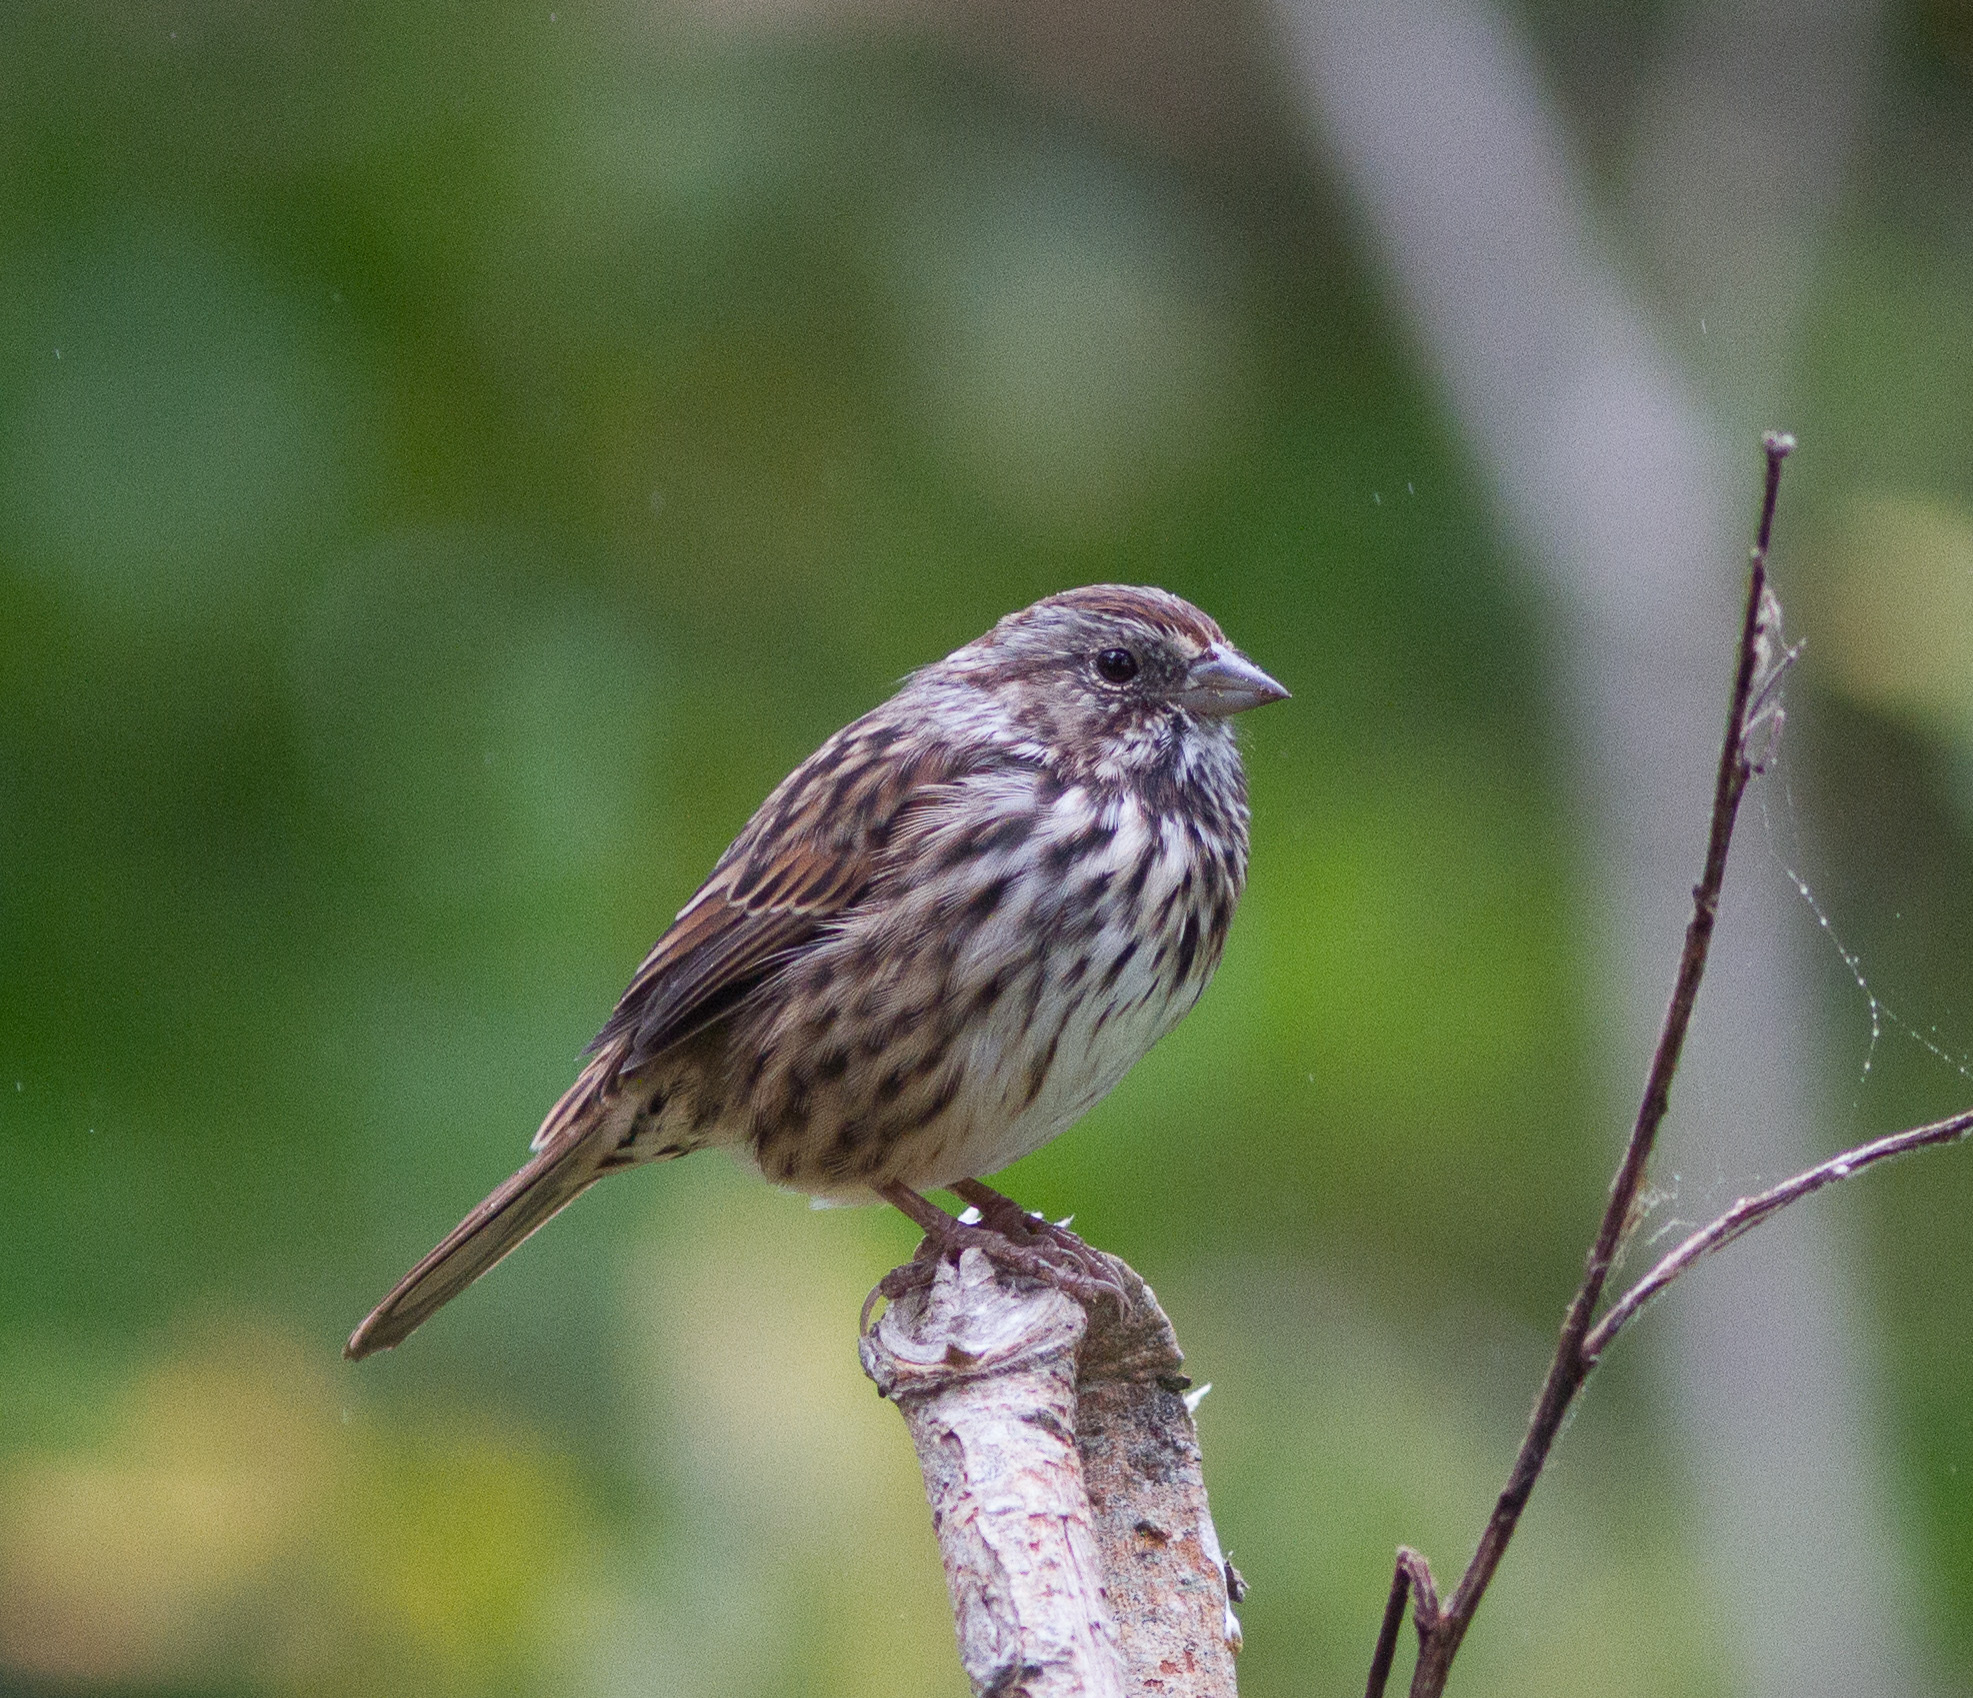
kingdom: Animalia
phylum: Chordata
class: Aves
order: Passeriformes
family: Passerellidae
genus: Melospiza
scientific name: Melospiza melodia
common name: Song sparrow
